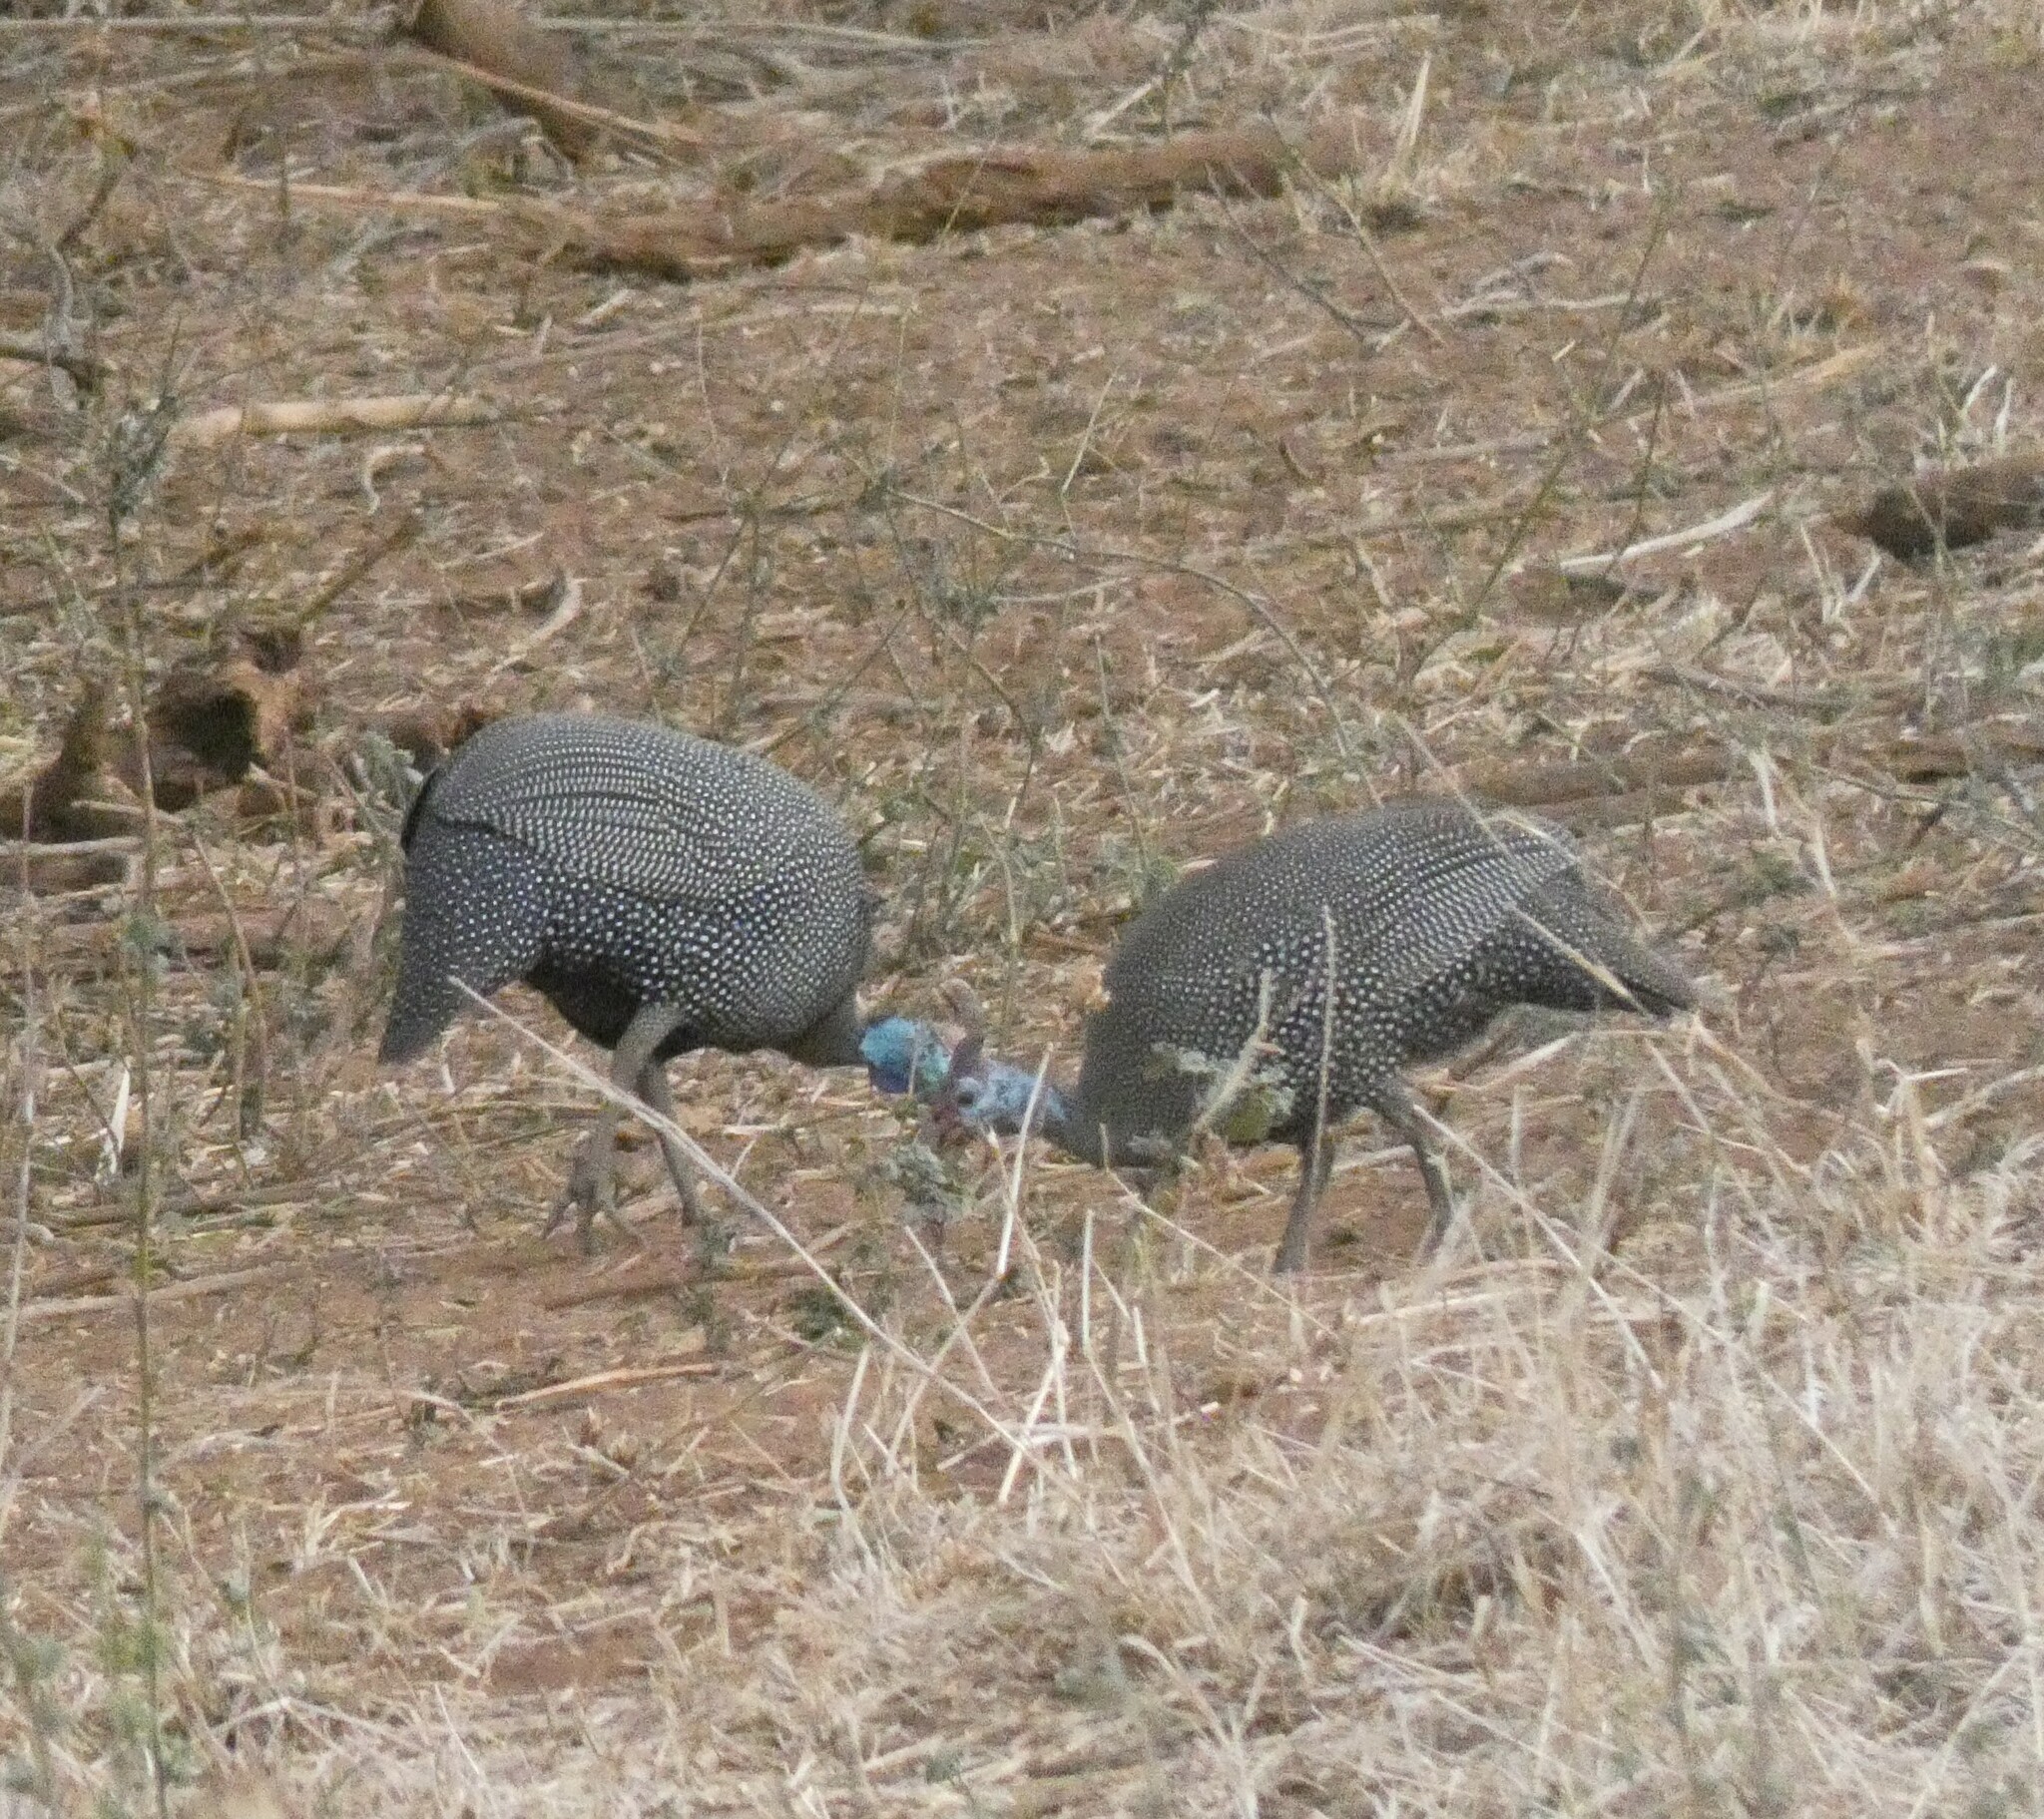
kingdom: Animalia
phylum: Chordata
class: Aves
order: Galliformes
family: Numididae
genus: Numida
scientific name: Numida meleagris
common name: Helmeted guineafowl
